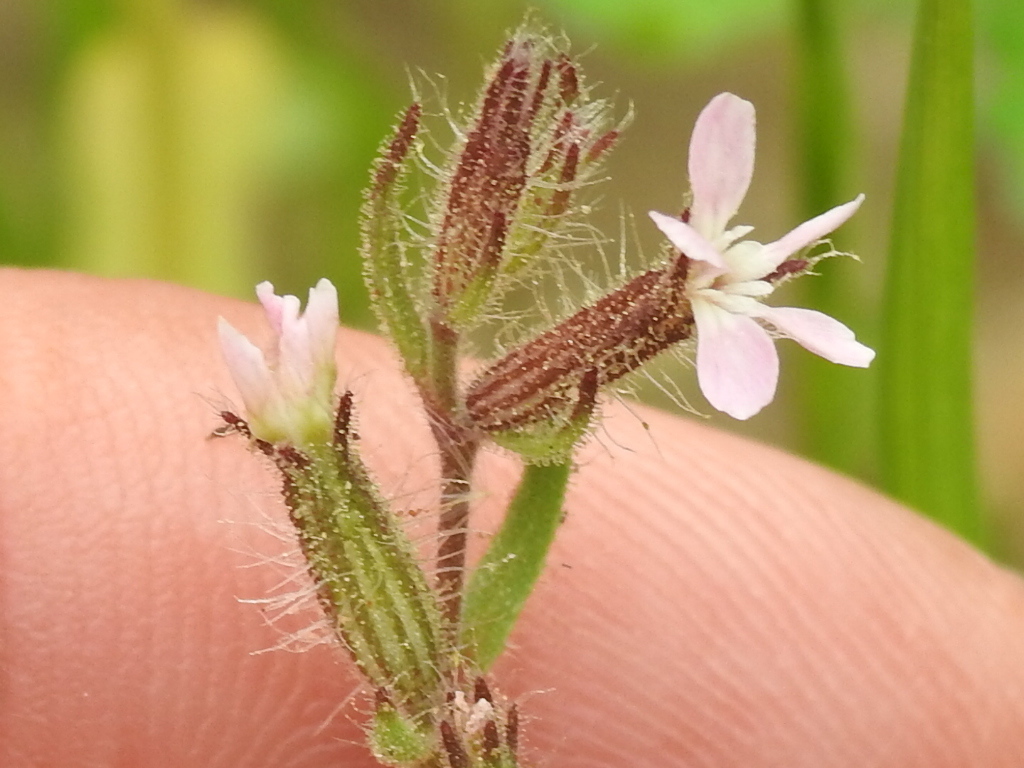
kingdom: Plantae
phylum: Tracheophyta
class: Magnoliopsida
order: Caryophyllales
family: Caryophyllaceae
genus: Silene
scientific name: Silene gallica
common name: Small-flowered catchfly
